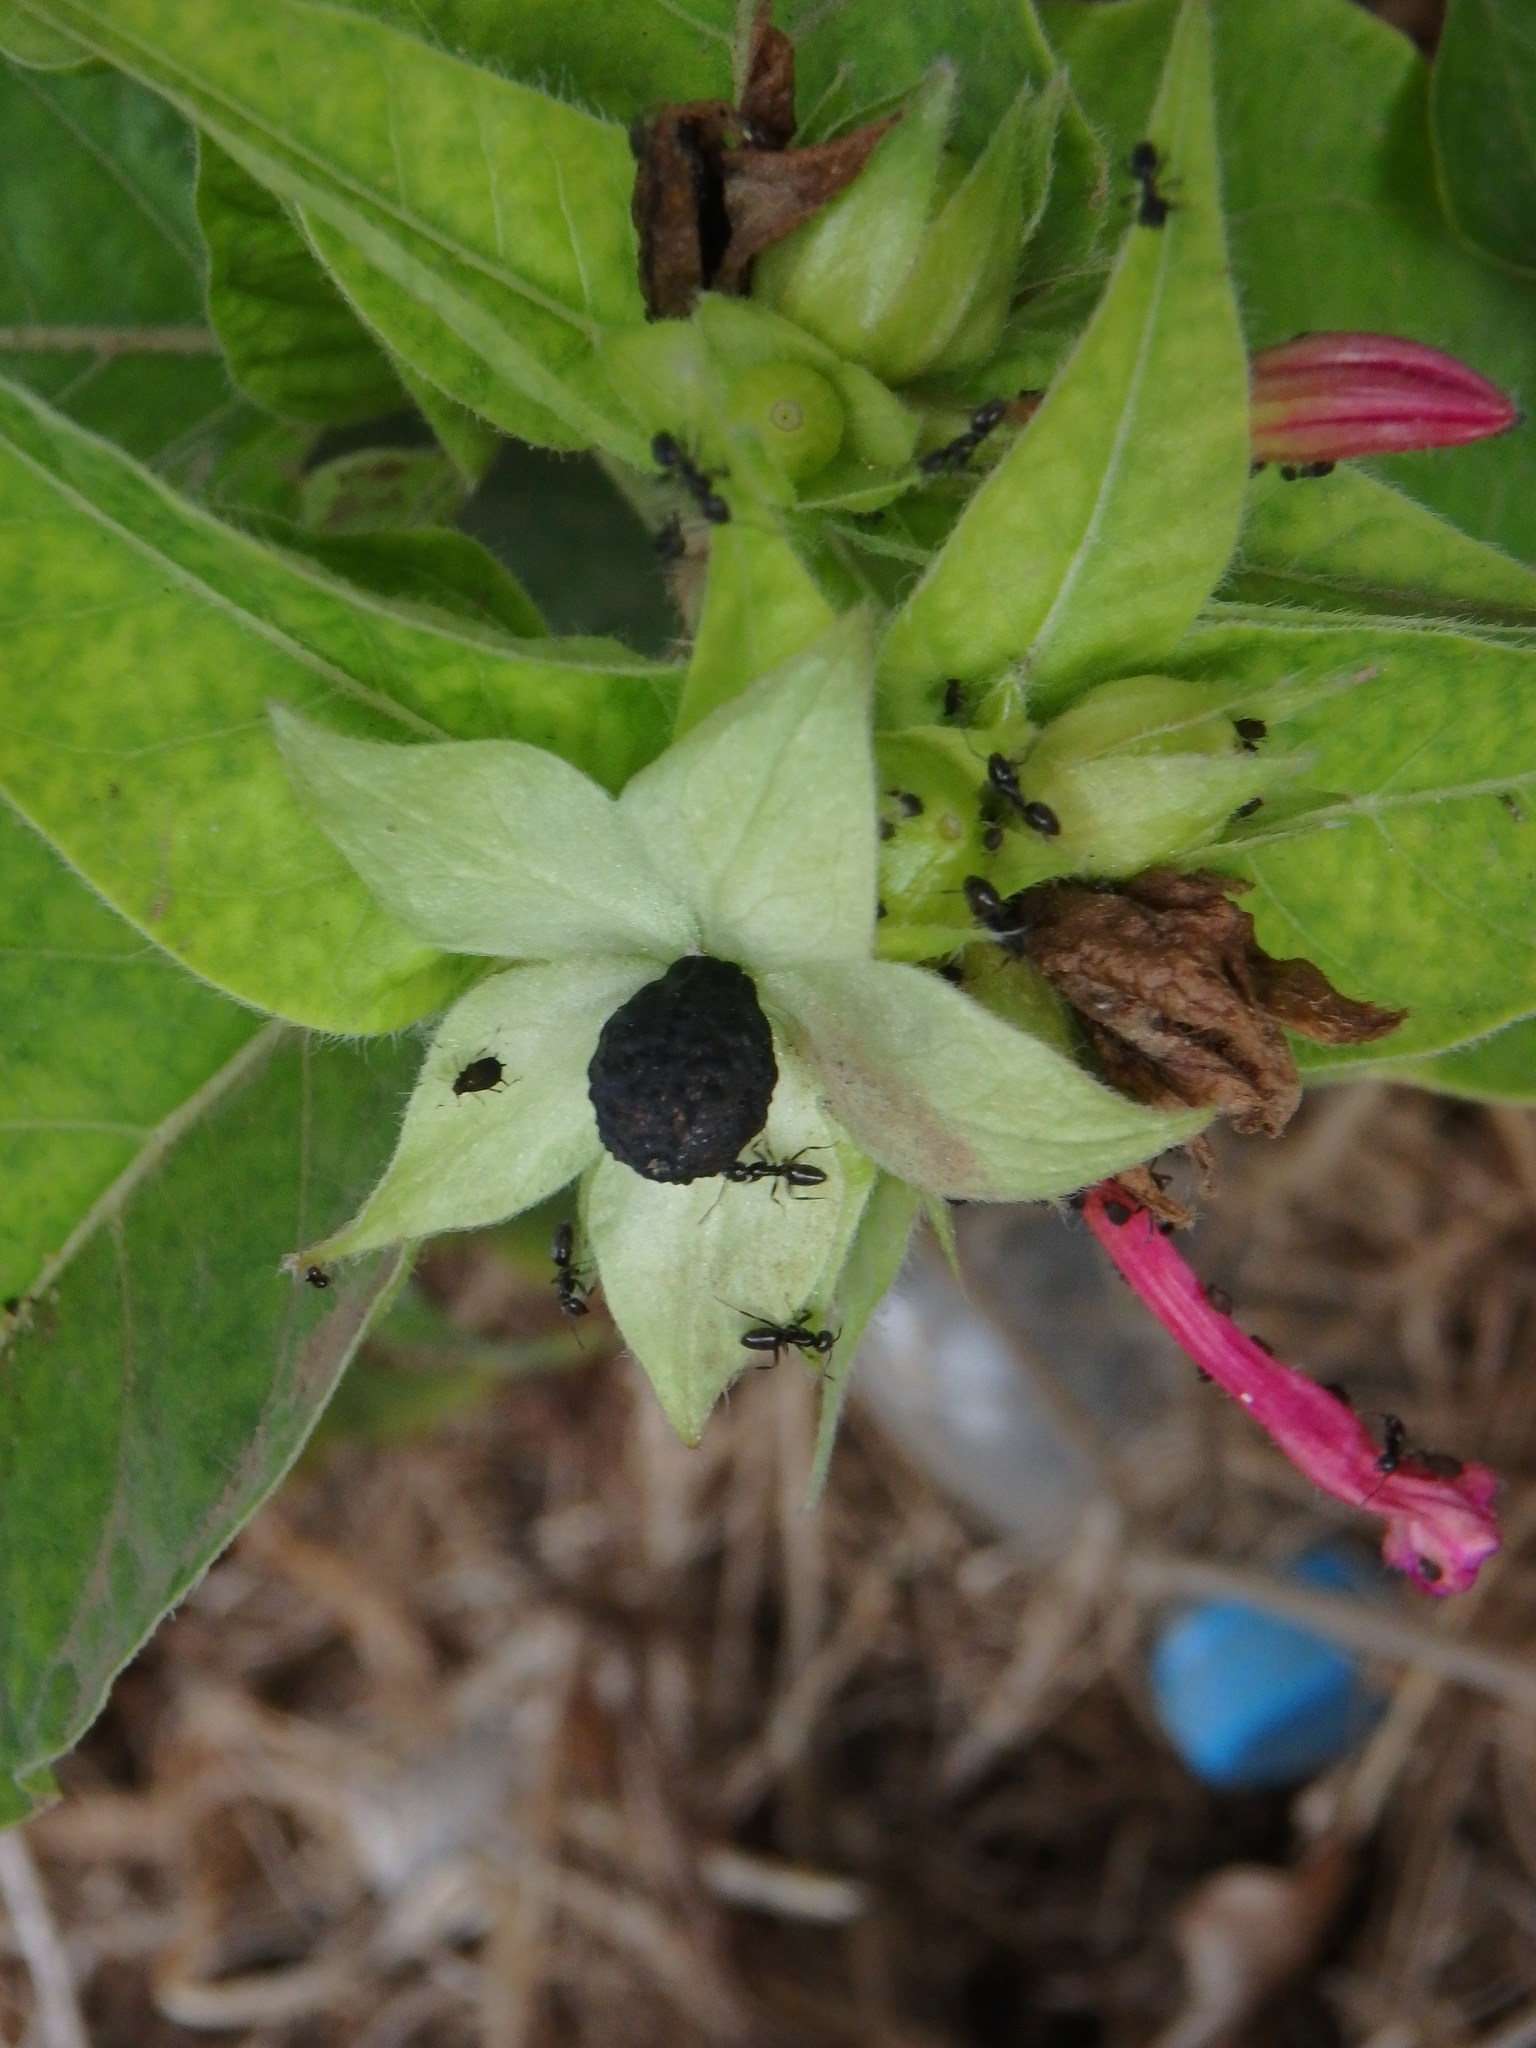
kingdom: Plantae
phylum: Tracheophyta
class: Magnoliopsida
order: Caryophyllales
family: Nyctaginaceae
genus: Mirabilis
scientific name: Mirabilis jalapa
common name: Marvel-of-peru
